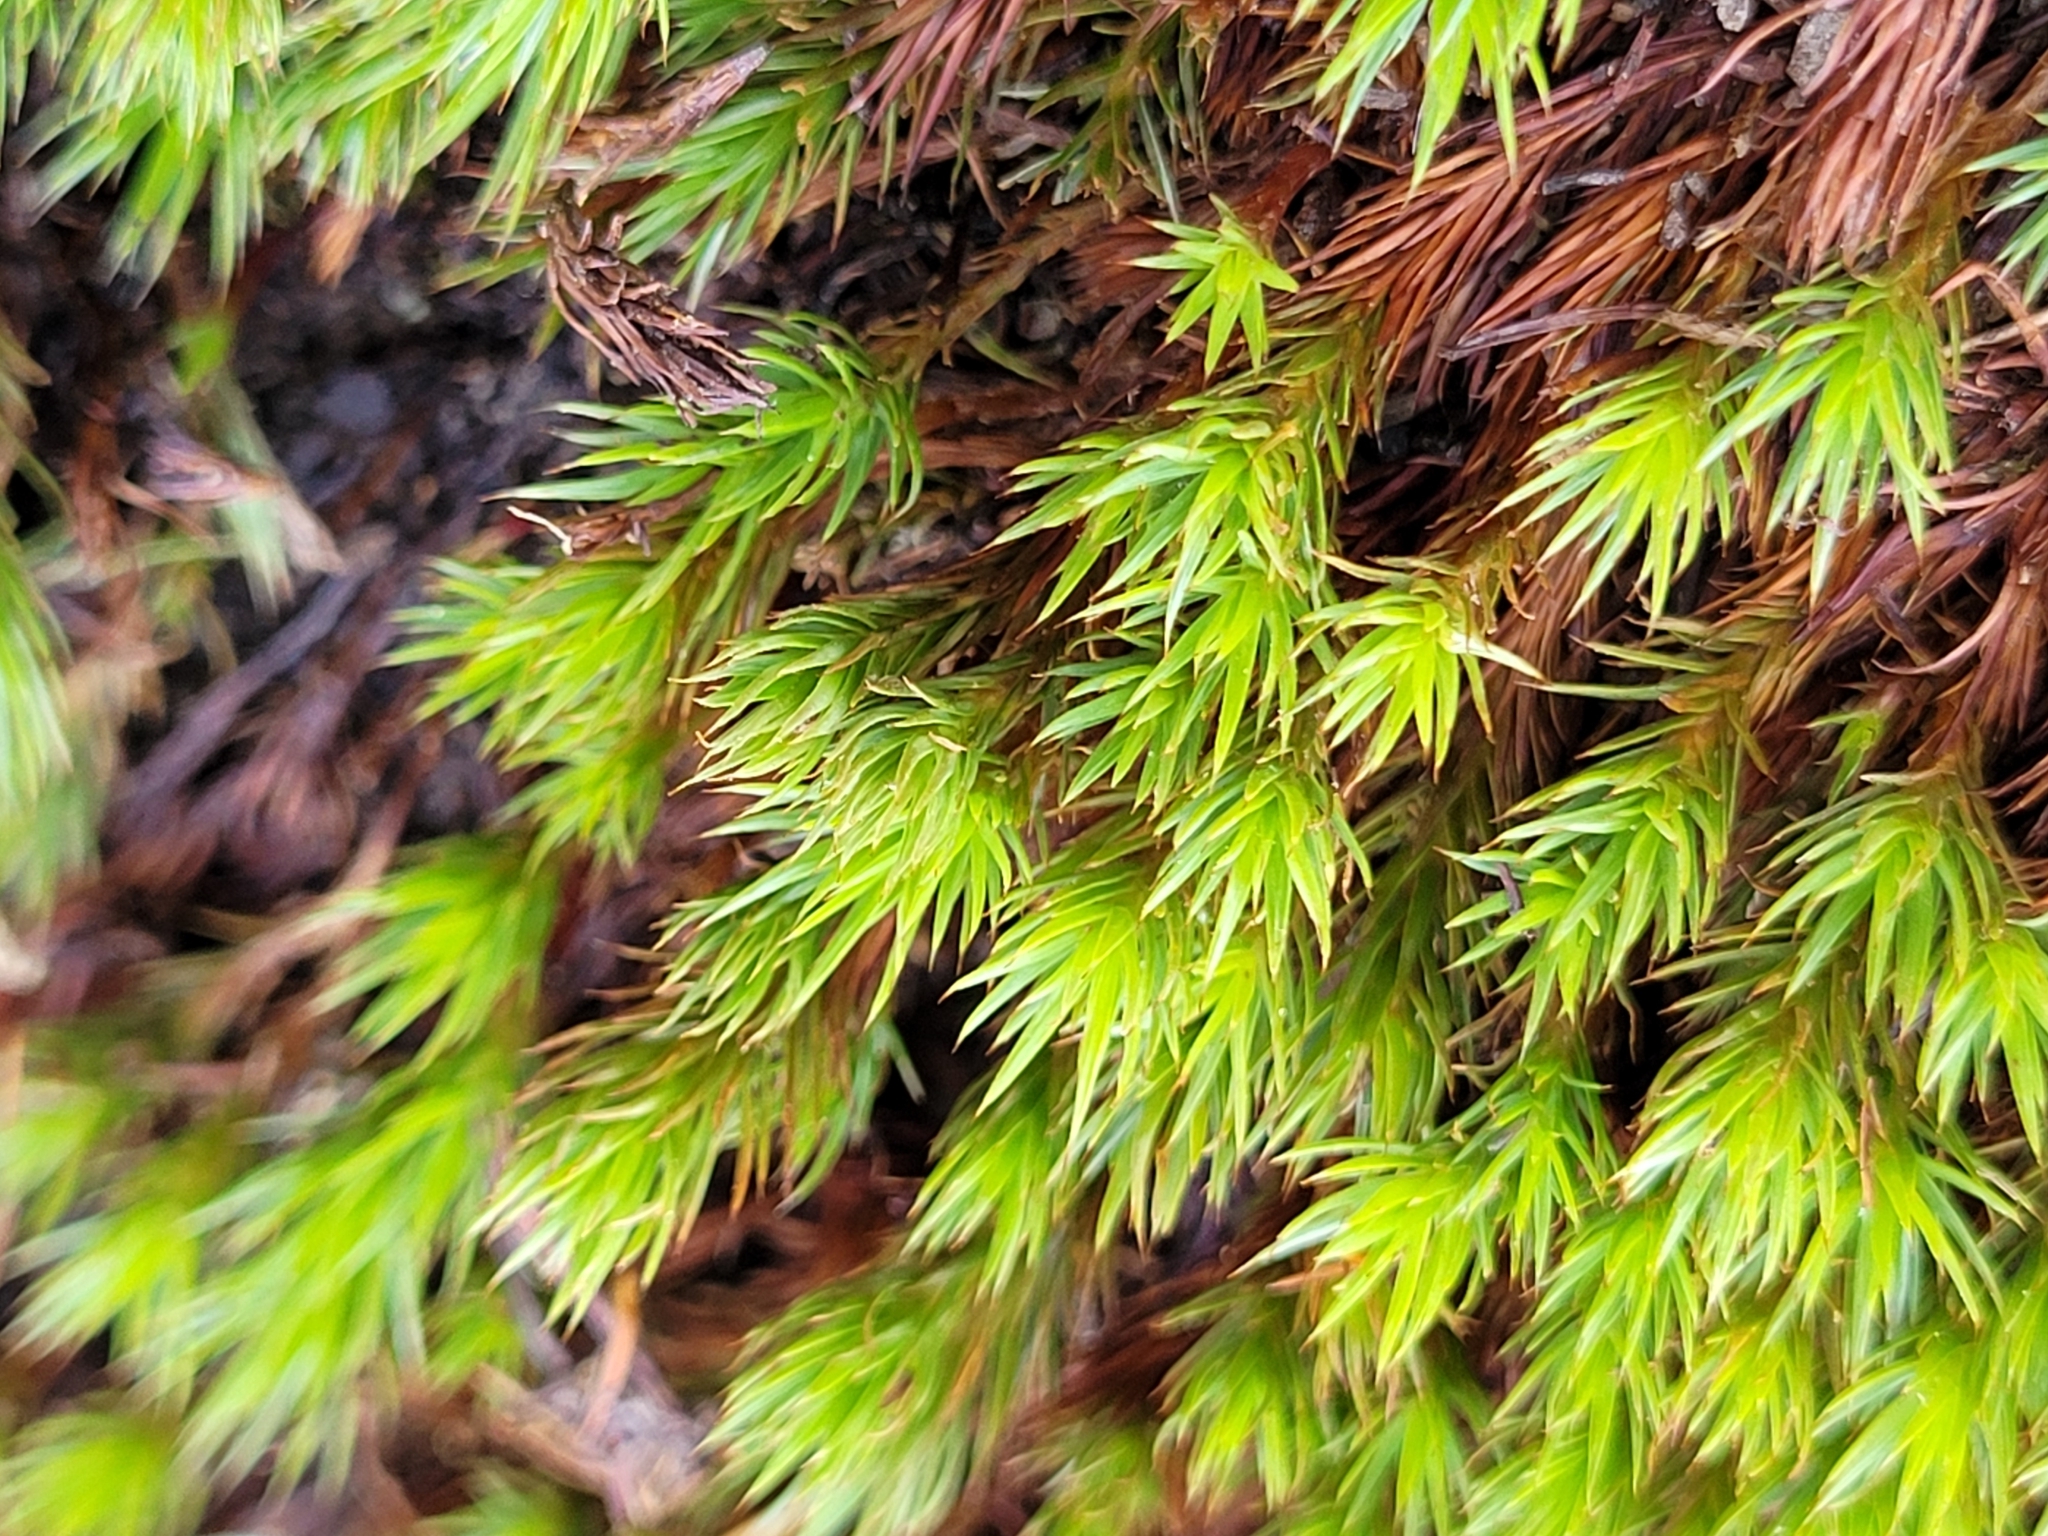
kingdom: Plantae
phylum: Bryophyta
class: Polytrichopsida
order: Polytrichales
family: Polytrichaceae
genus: Polytrichum
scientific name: Polytrichum juniperinum
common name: Juniper haircap moss
